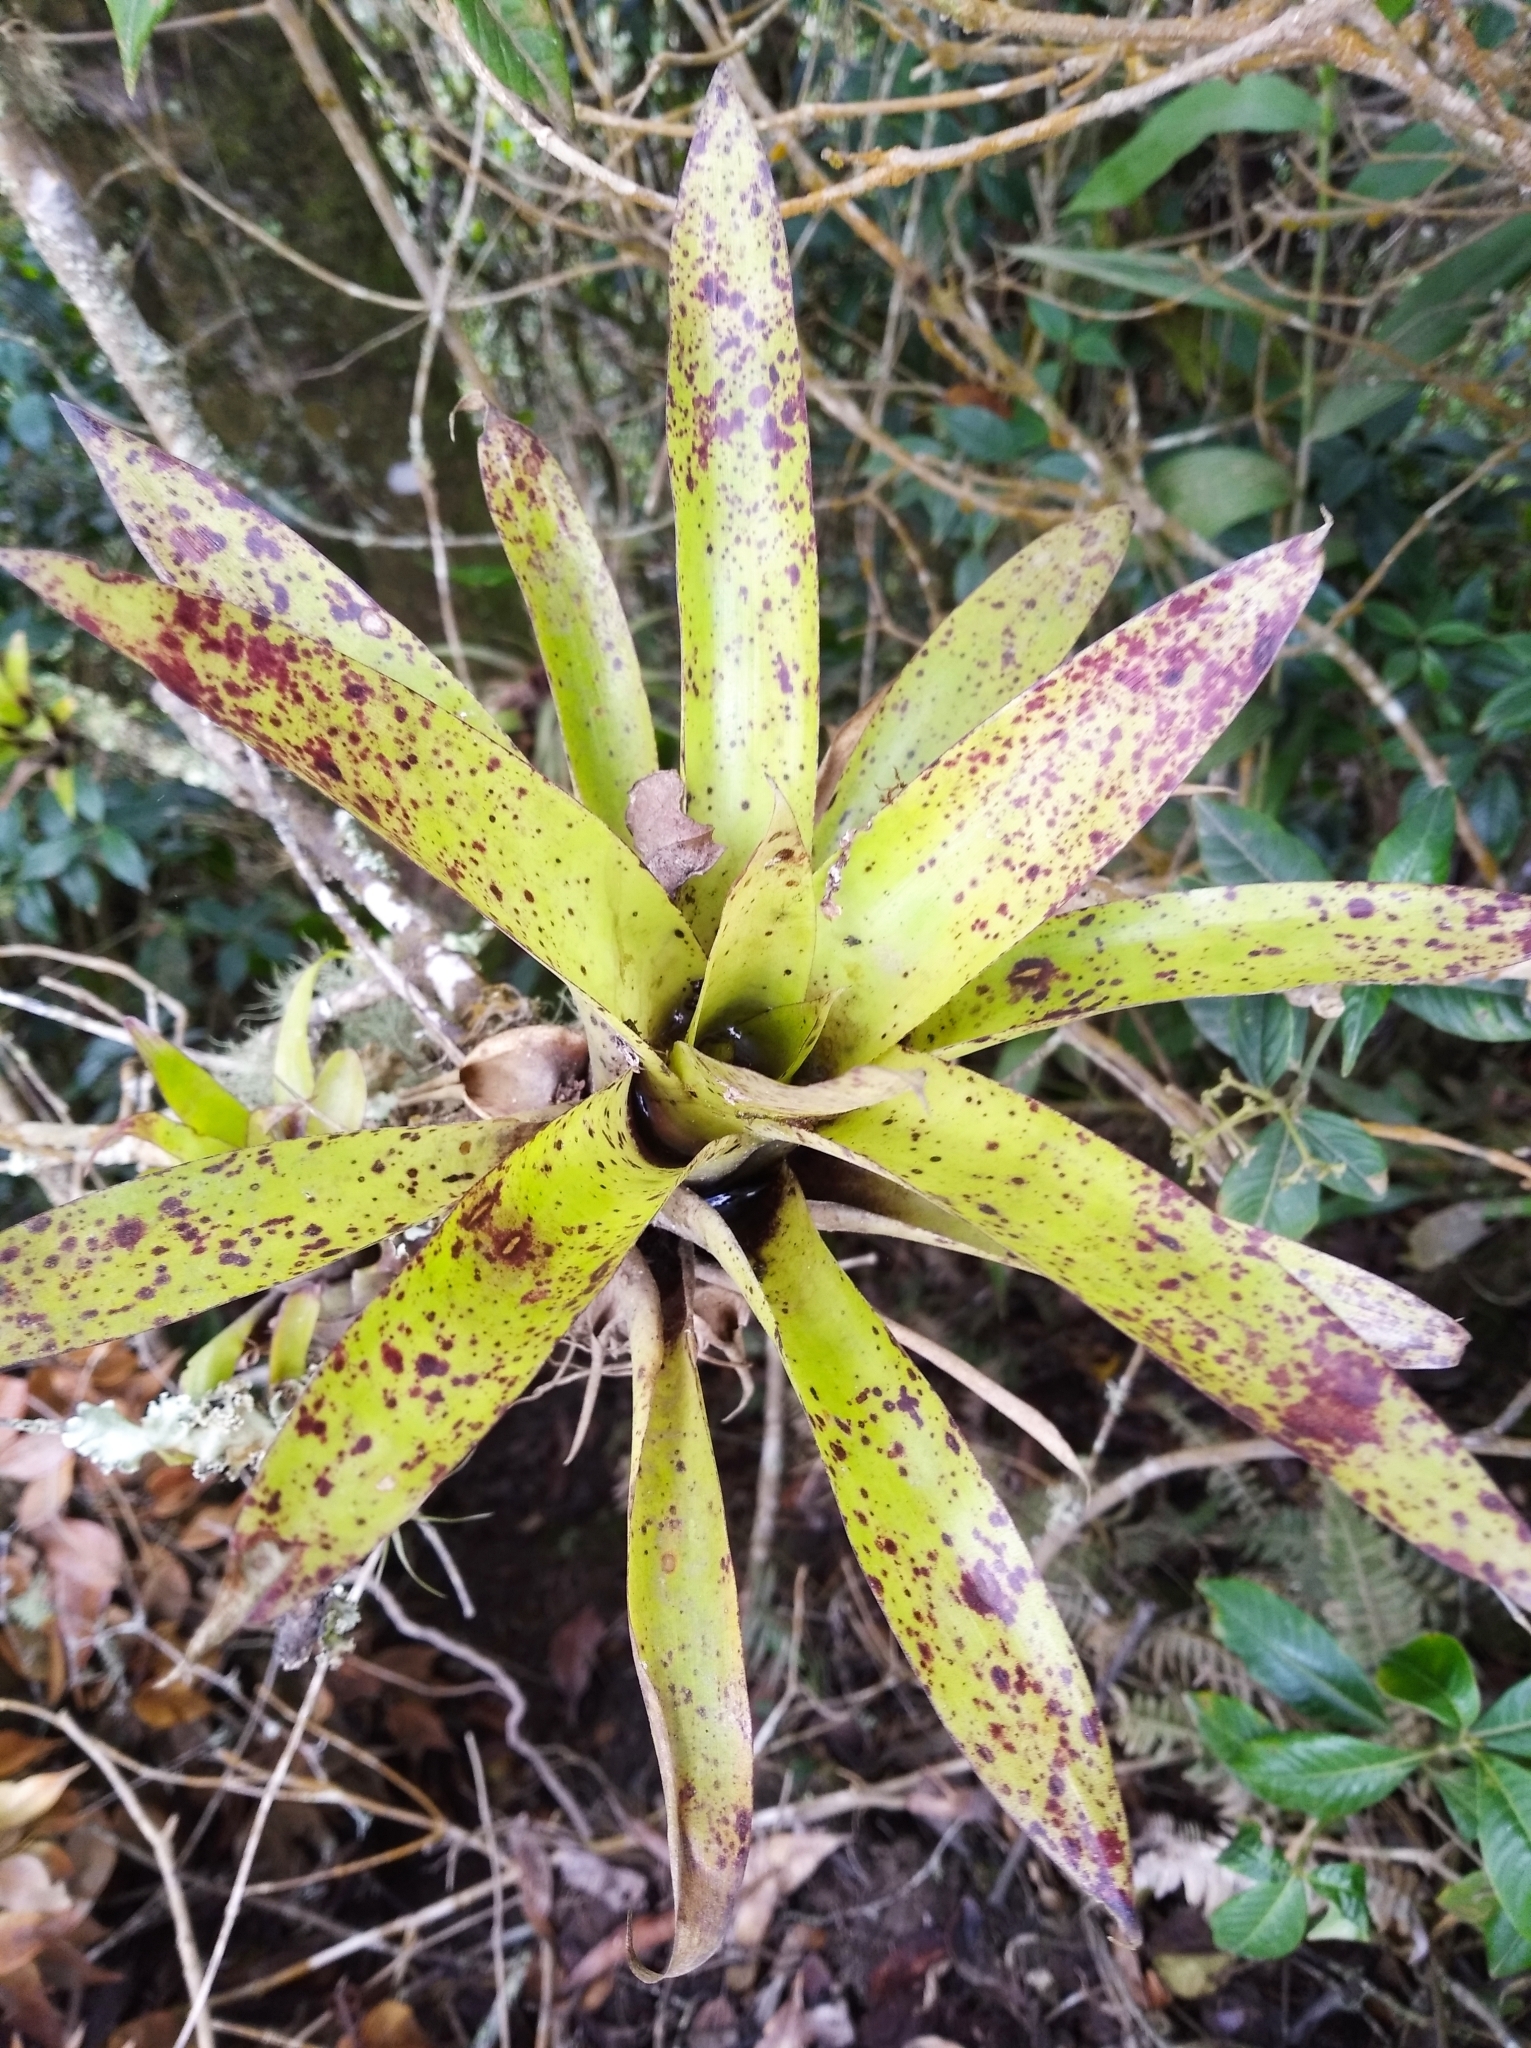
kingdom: Plantae
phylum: Tracheophyta
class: Liliopsida
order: Poales
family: Bromeliaceae
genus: Tillandsia
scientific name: Tillandsia biflora
